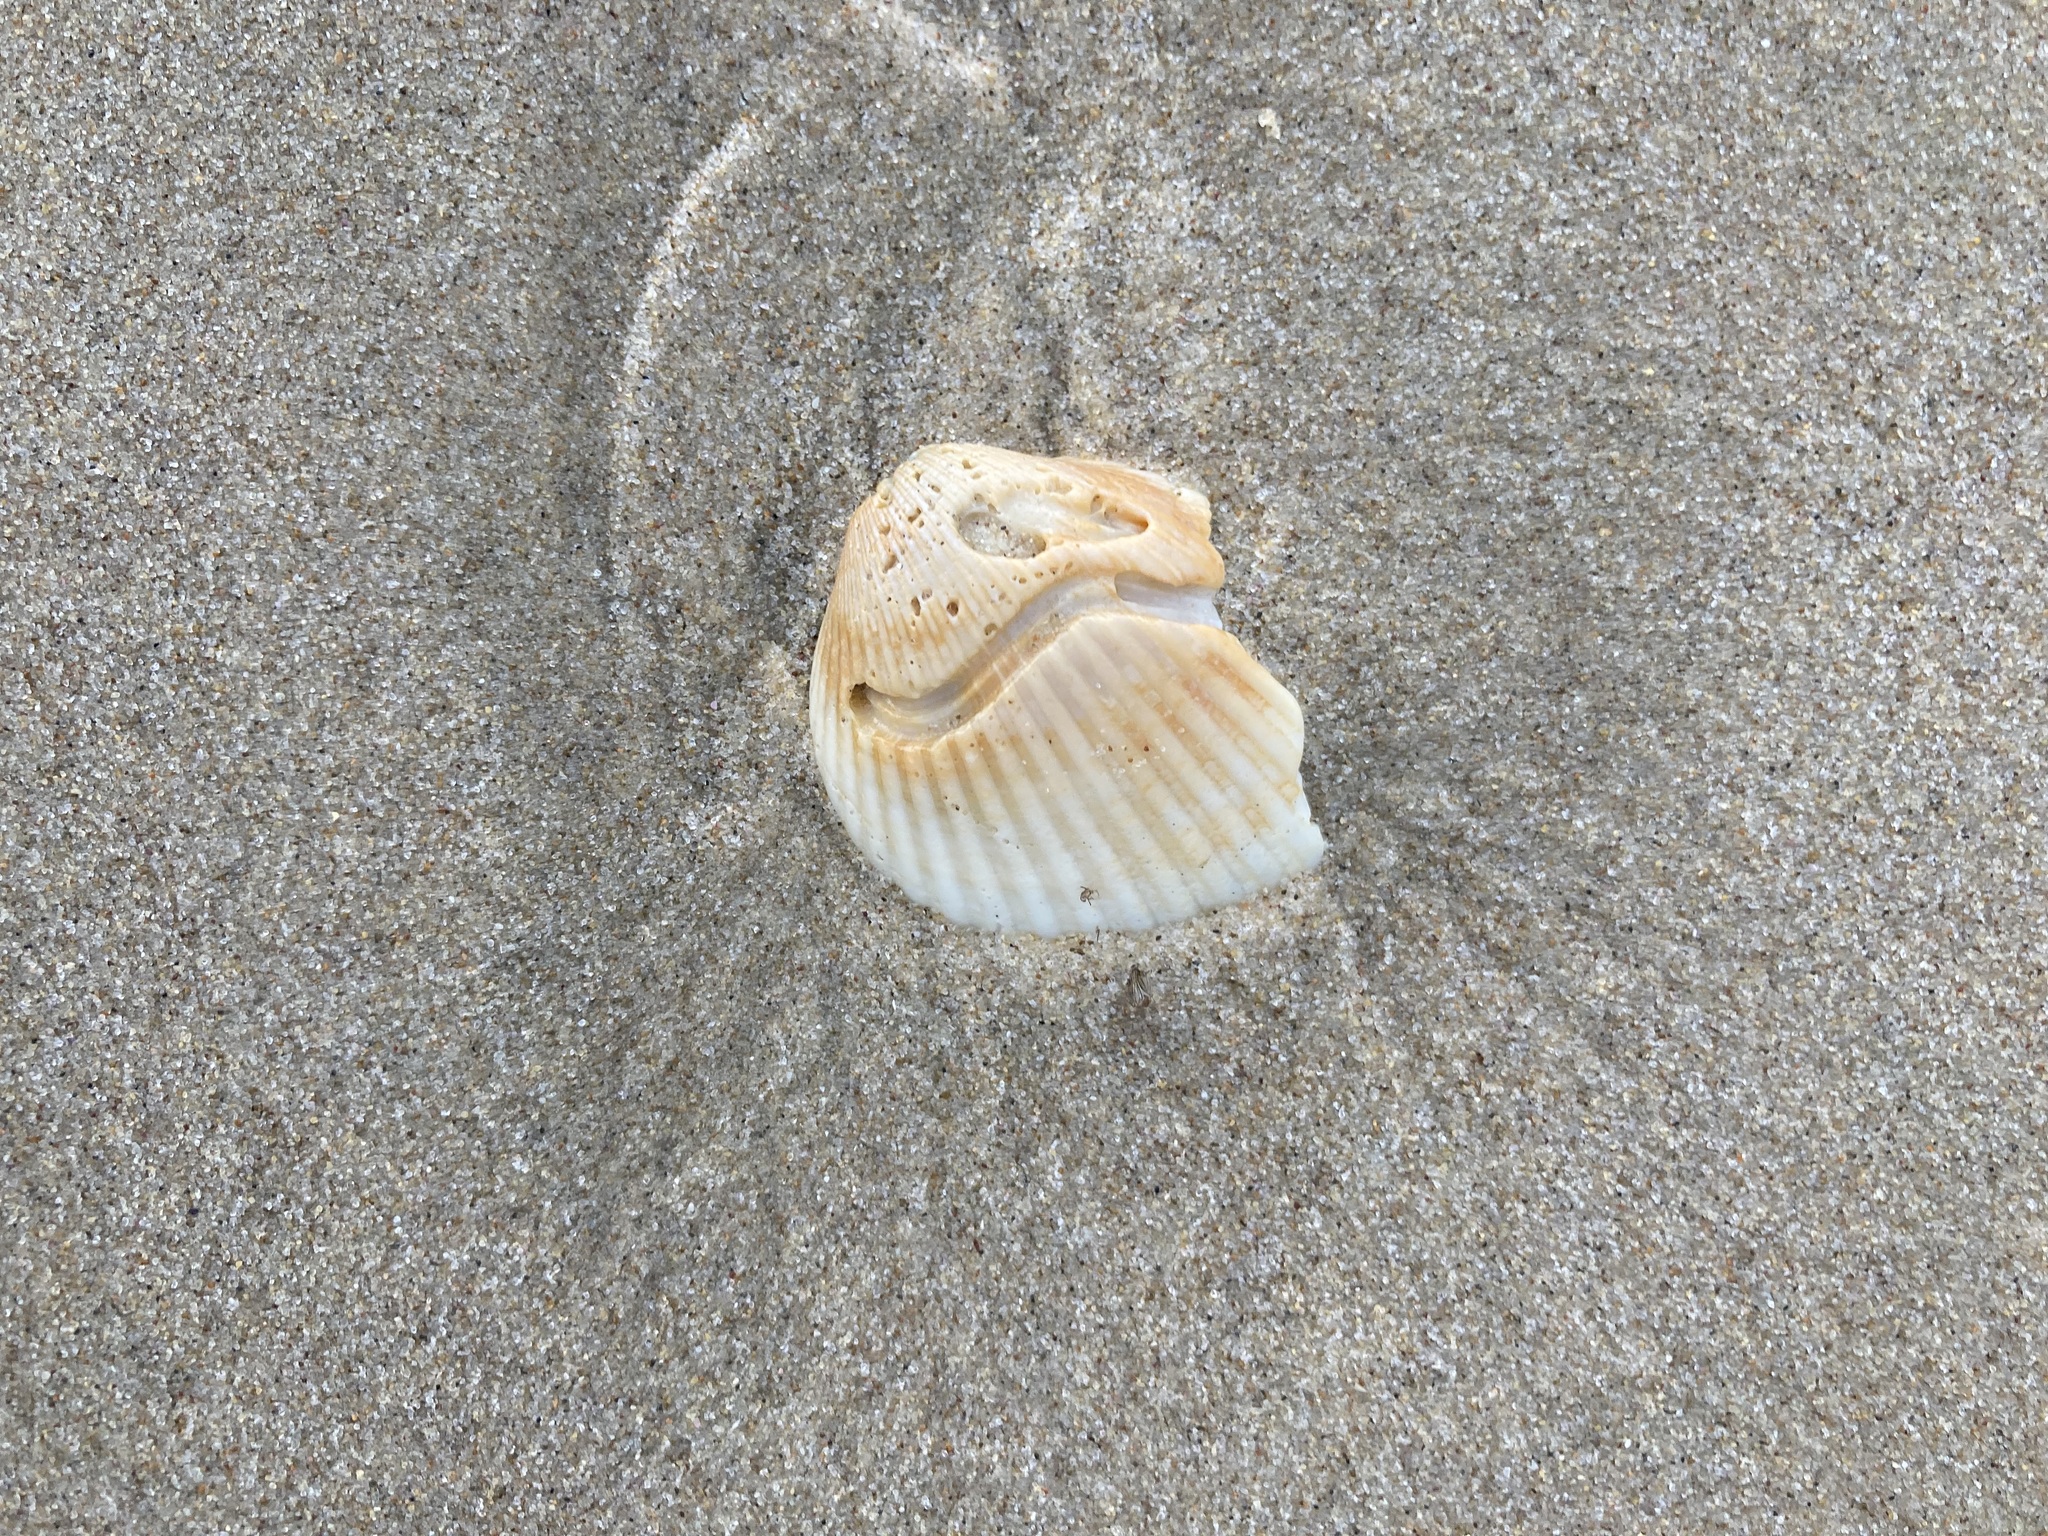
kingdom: Animalia
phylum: Mollusca
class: Bivalvia
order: Arcida
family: Arcidae
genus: Anadara
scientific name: Anadara trapezia
